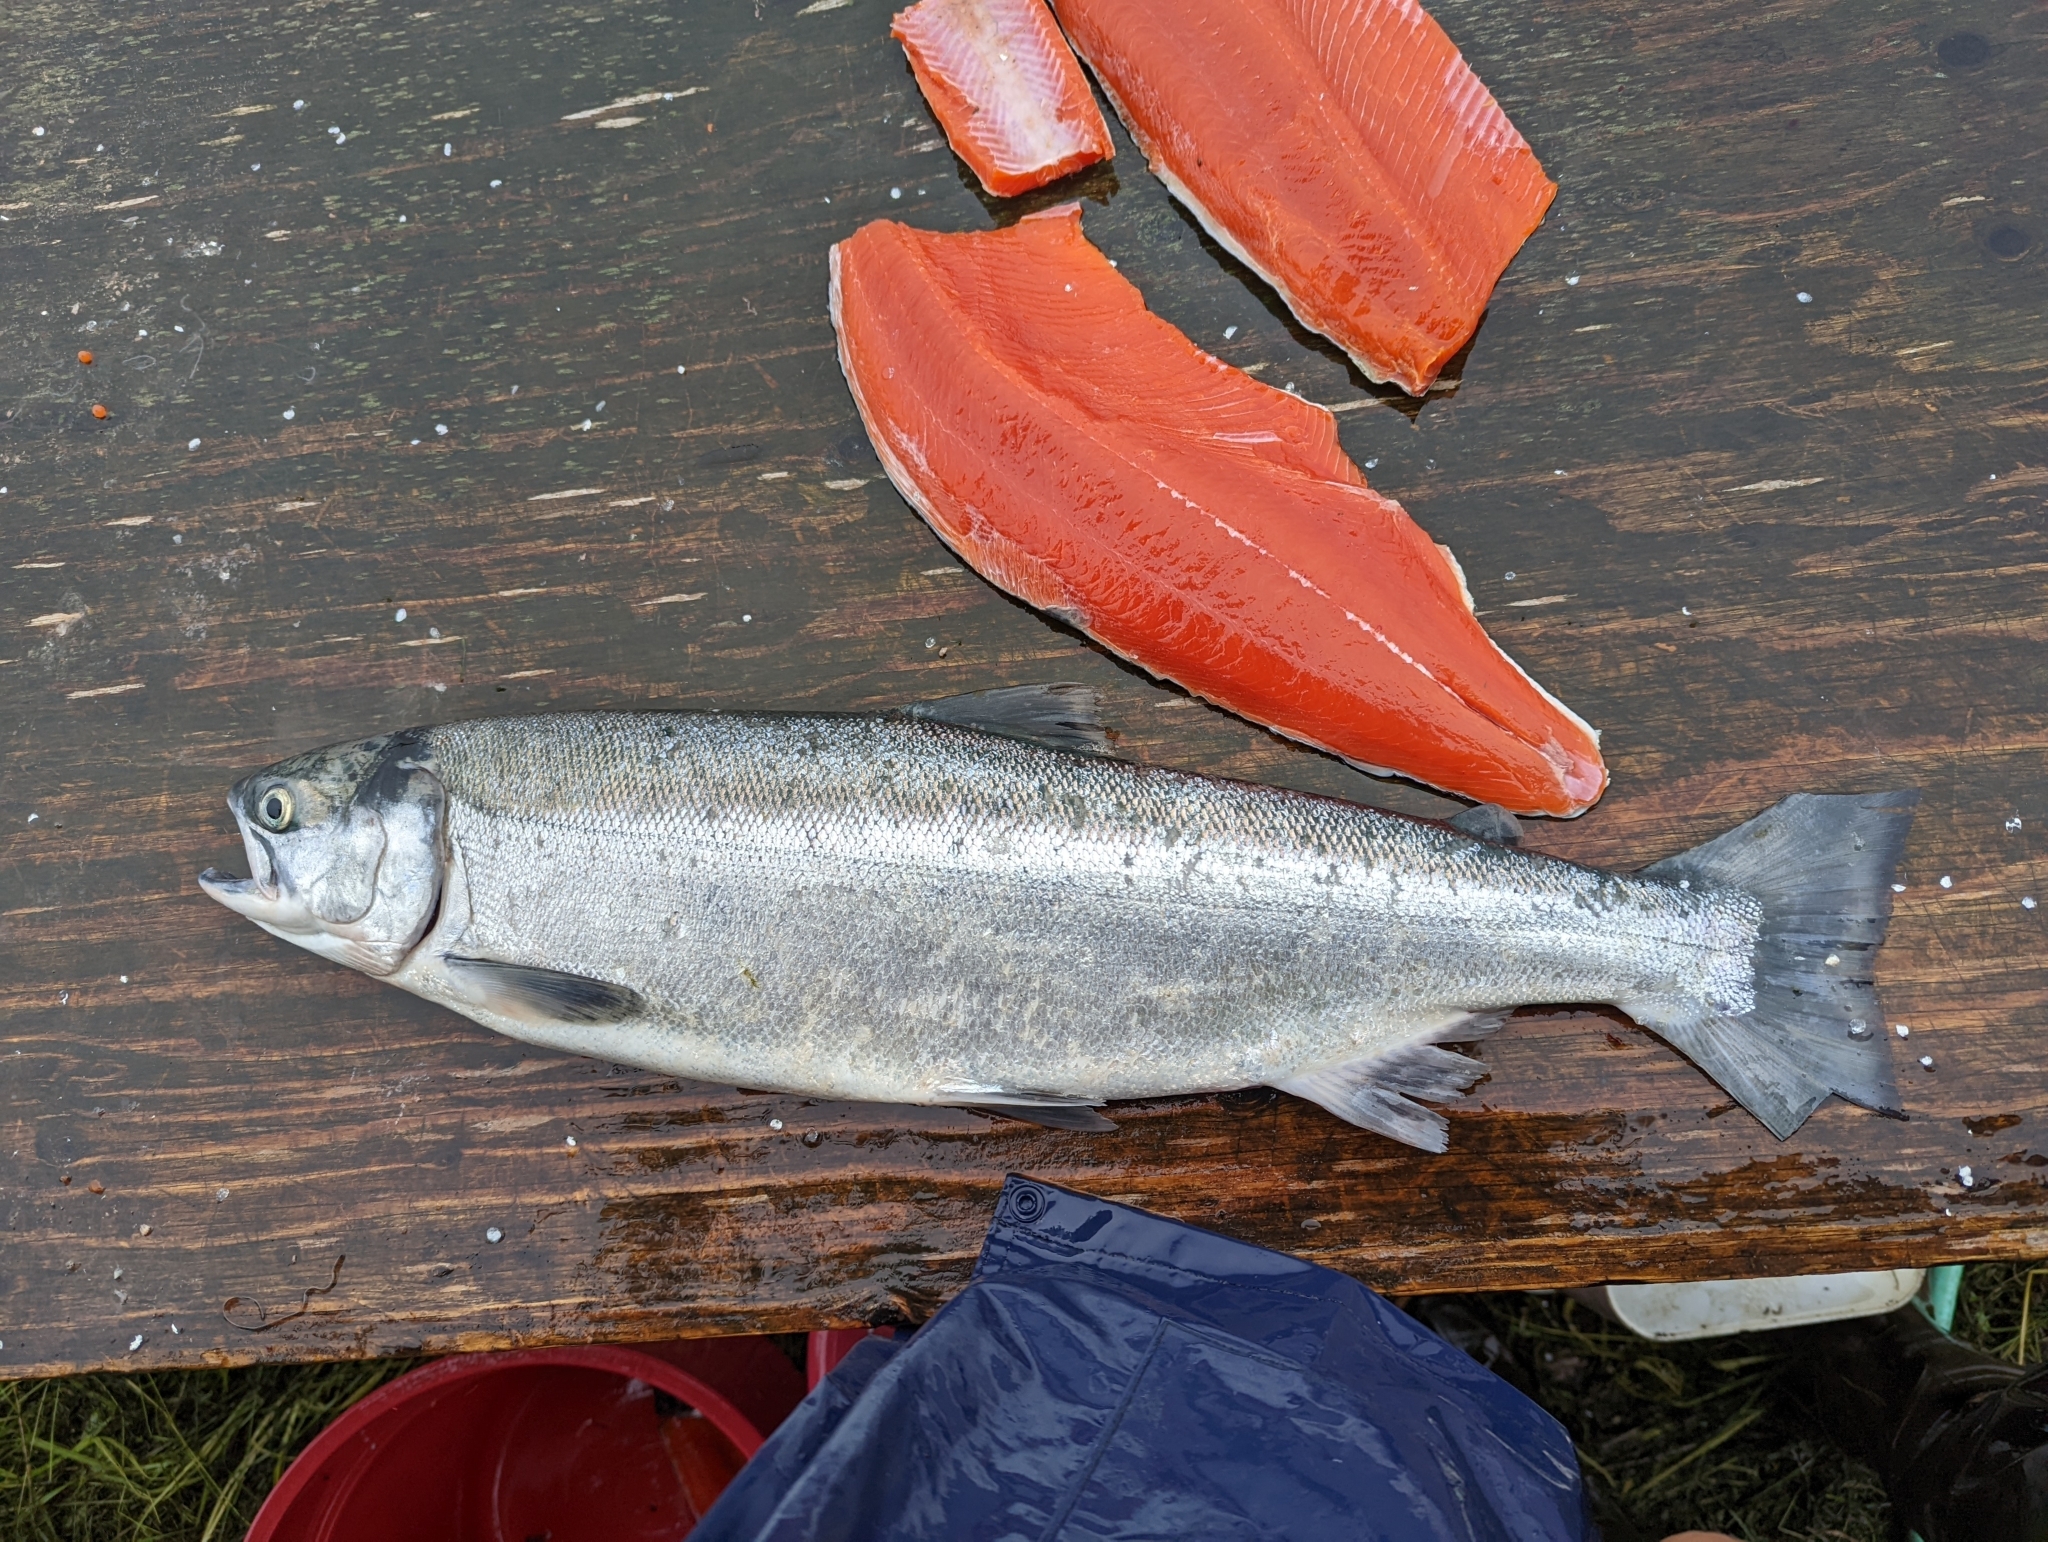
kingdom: Animalia
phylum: Chordata
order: Salmoniformes
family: Salmonidae
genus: Oncorhynchus
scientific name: Oncorhynchus nerka
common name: Sockeye salmon
